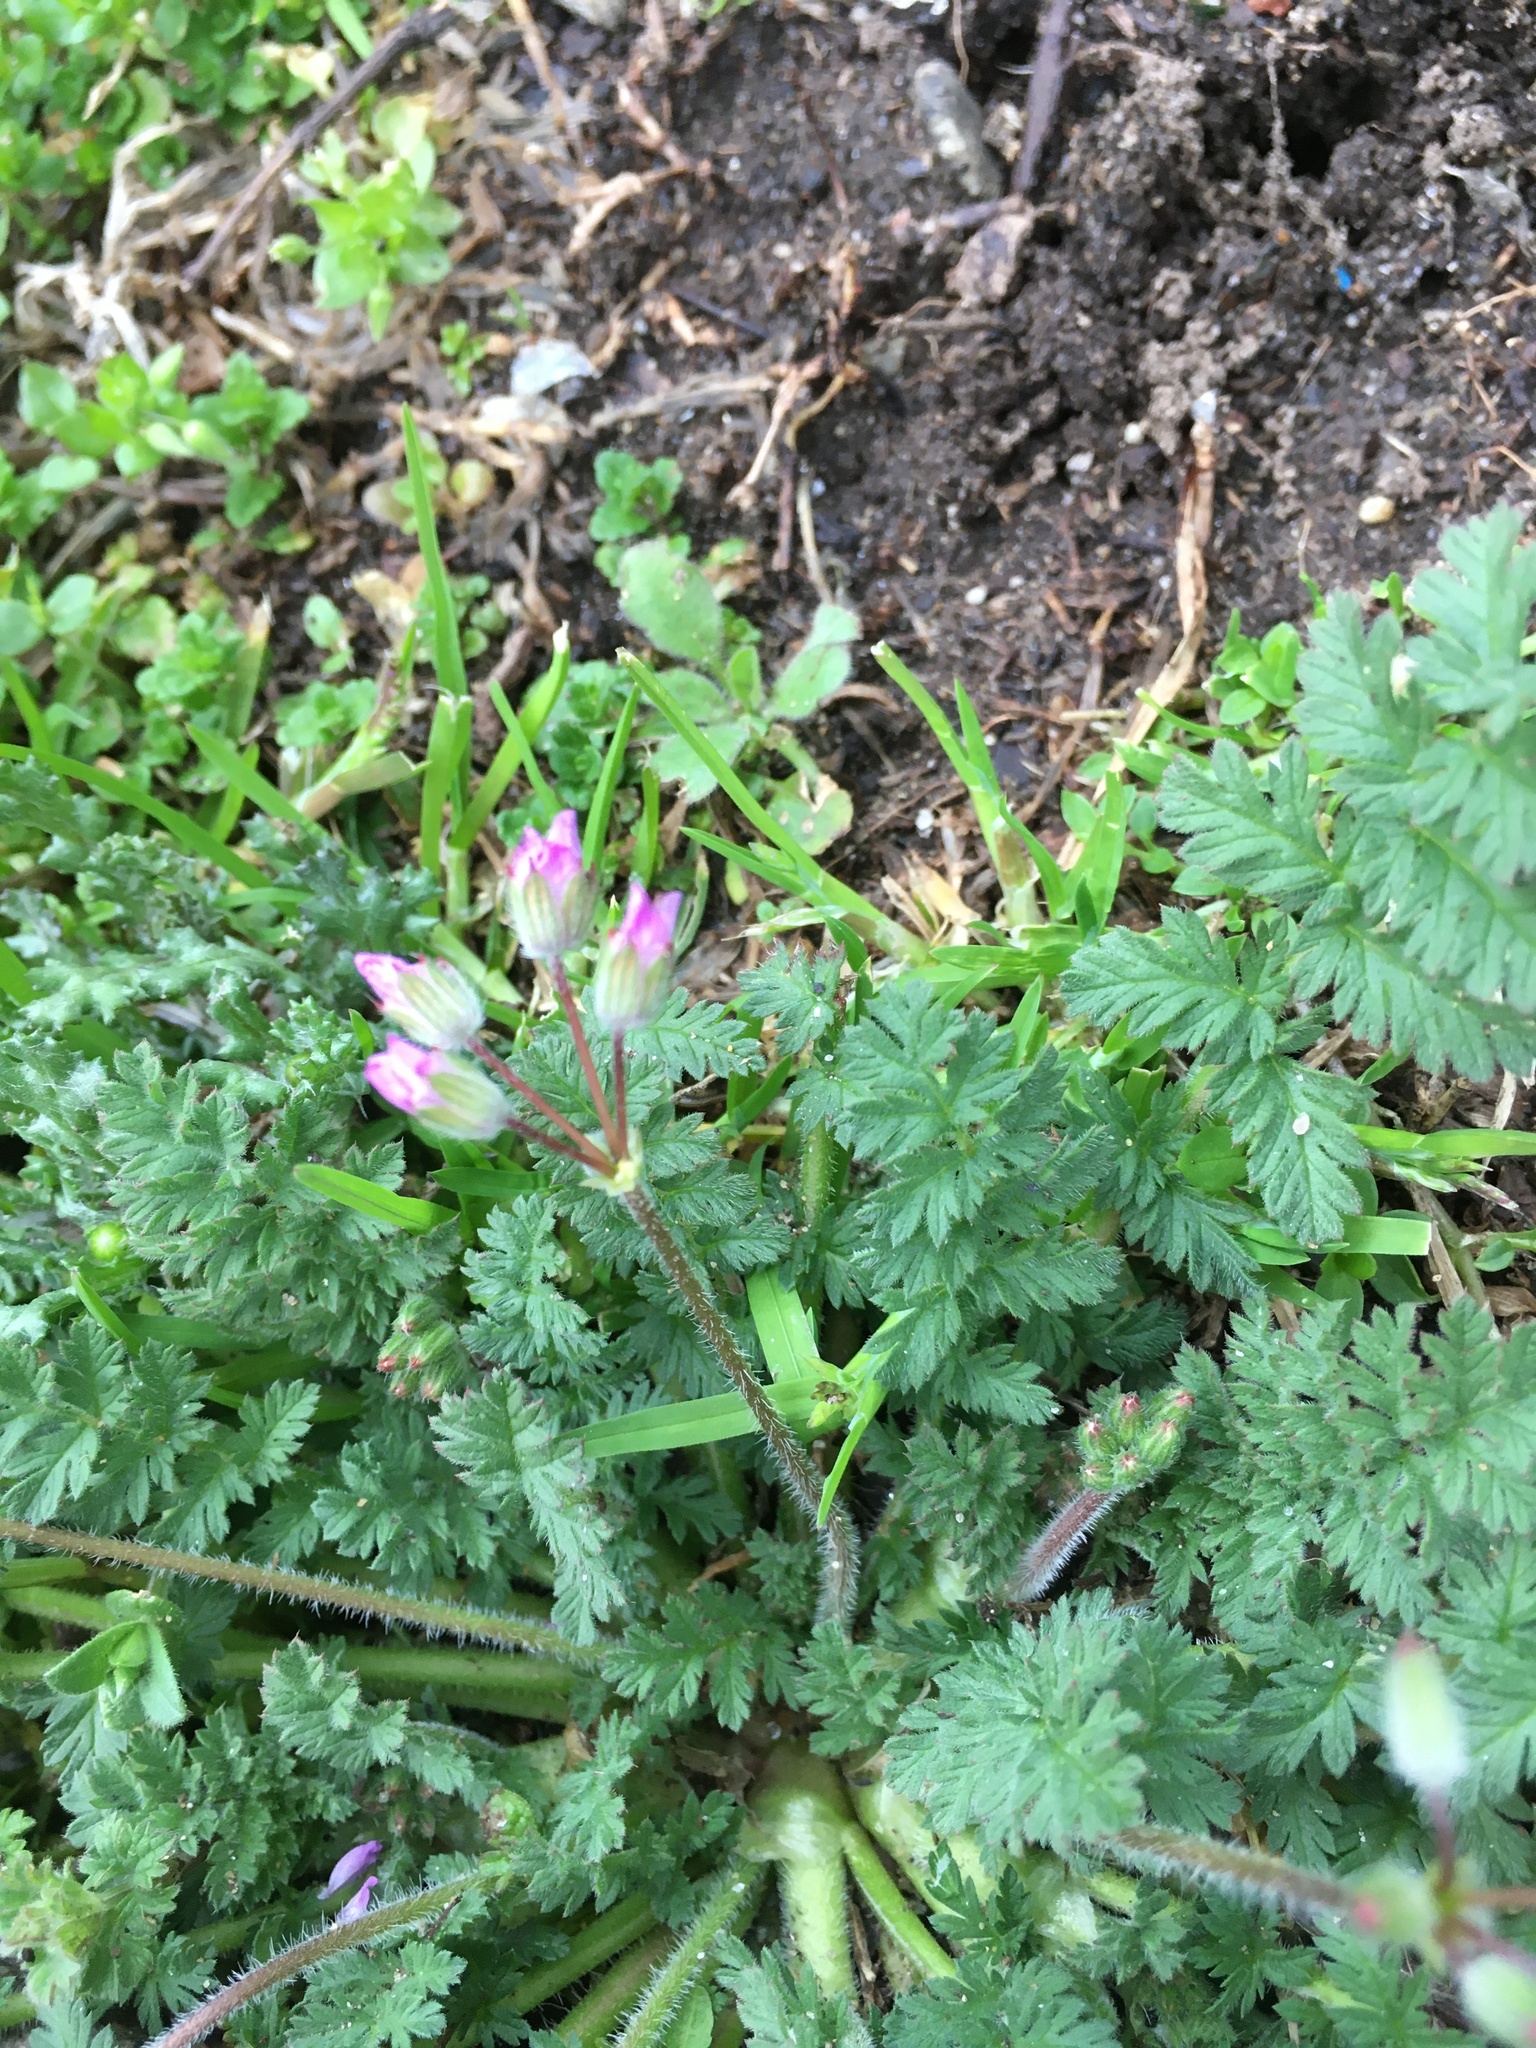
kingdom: Plantae
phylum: Tracheophyta
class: Magnoliopsida
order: Geraniales
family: Geraniaceae
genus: Erodium
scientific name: Erodium cicutarium
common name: Common stork's-bill
